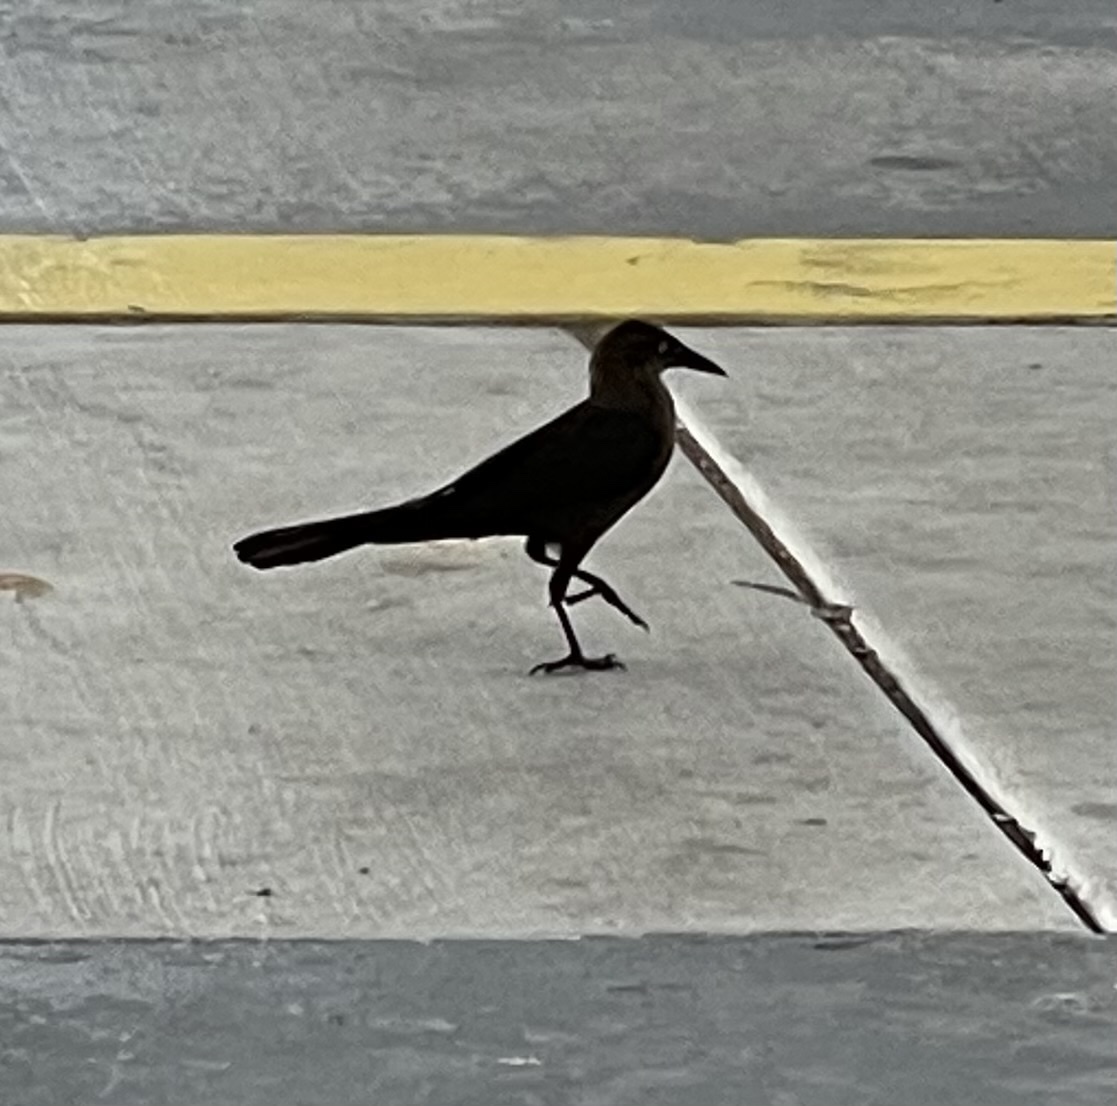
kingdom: Animalia
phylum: Chordata
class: Aves
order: Passeriformes
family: Icteridae
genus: Quiscalus
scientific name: Quiscalus mexicanus
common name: Great-tailed grackle
